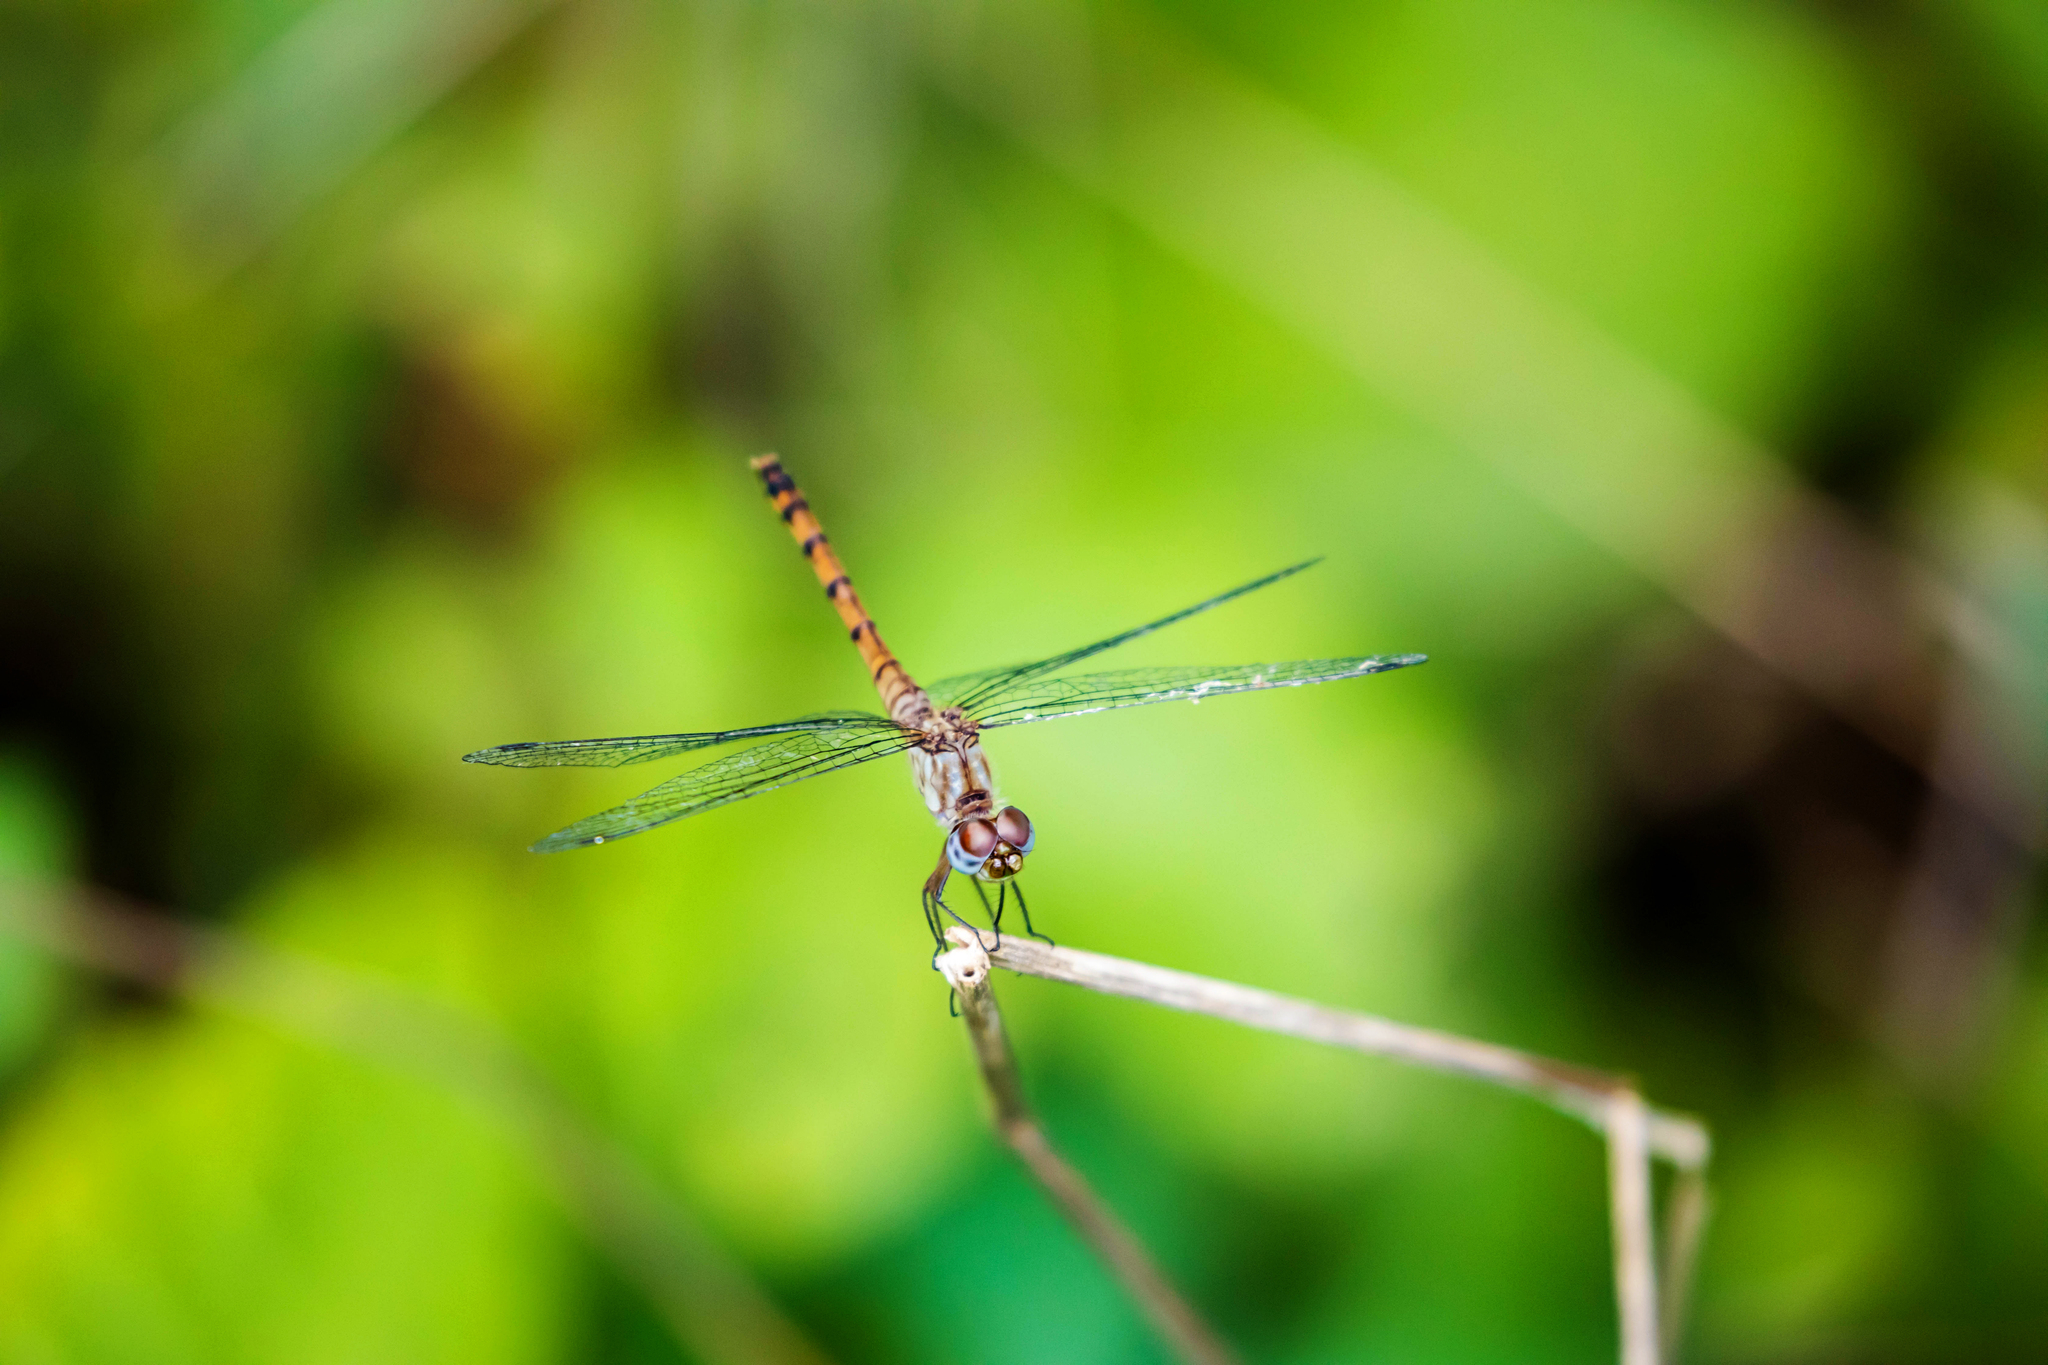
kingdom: Animalia
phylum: Arthropoda
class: Insecta
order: Odonata
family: Libellulidae
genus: Sympetrum
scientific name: Sympetrum ambiguum
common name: Blue-faced meadowhawk
